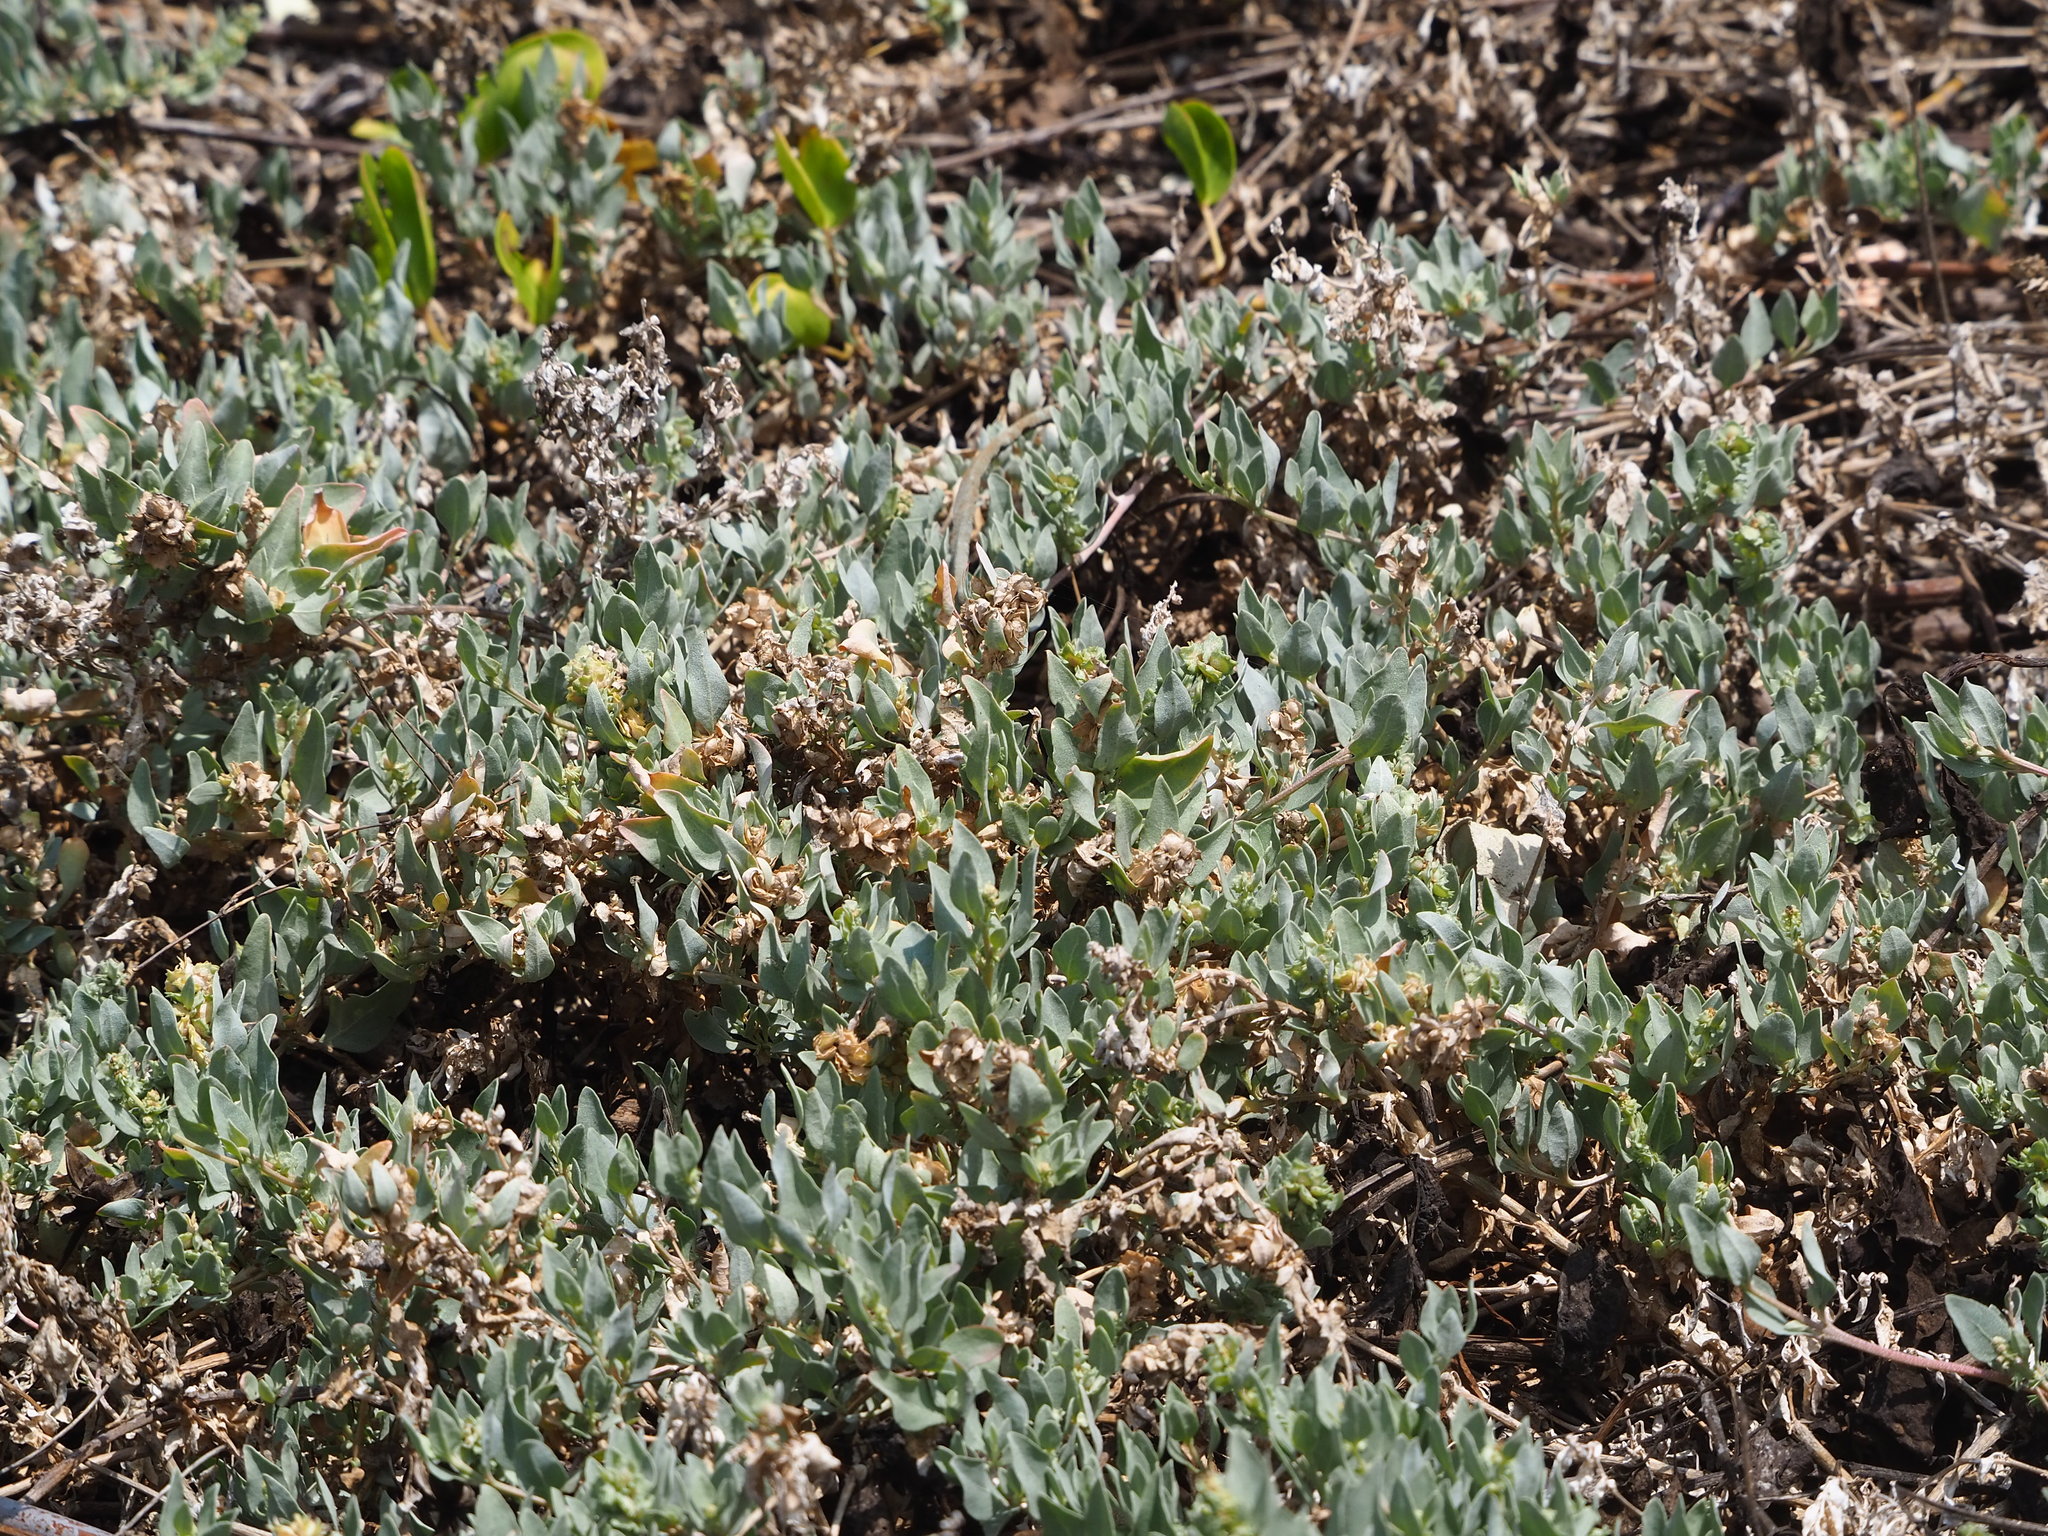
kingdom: Plantae
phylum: Tracheophyta
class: Magnoliopsida
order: Caryophyllales
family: Amaranthaceae
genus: Atriplex
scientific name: Atriplex maximowicziana
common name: Maximowicz's saltbush
